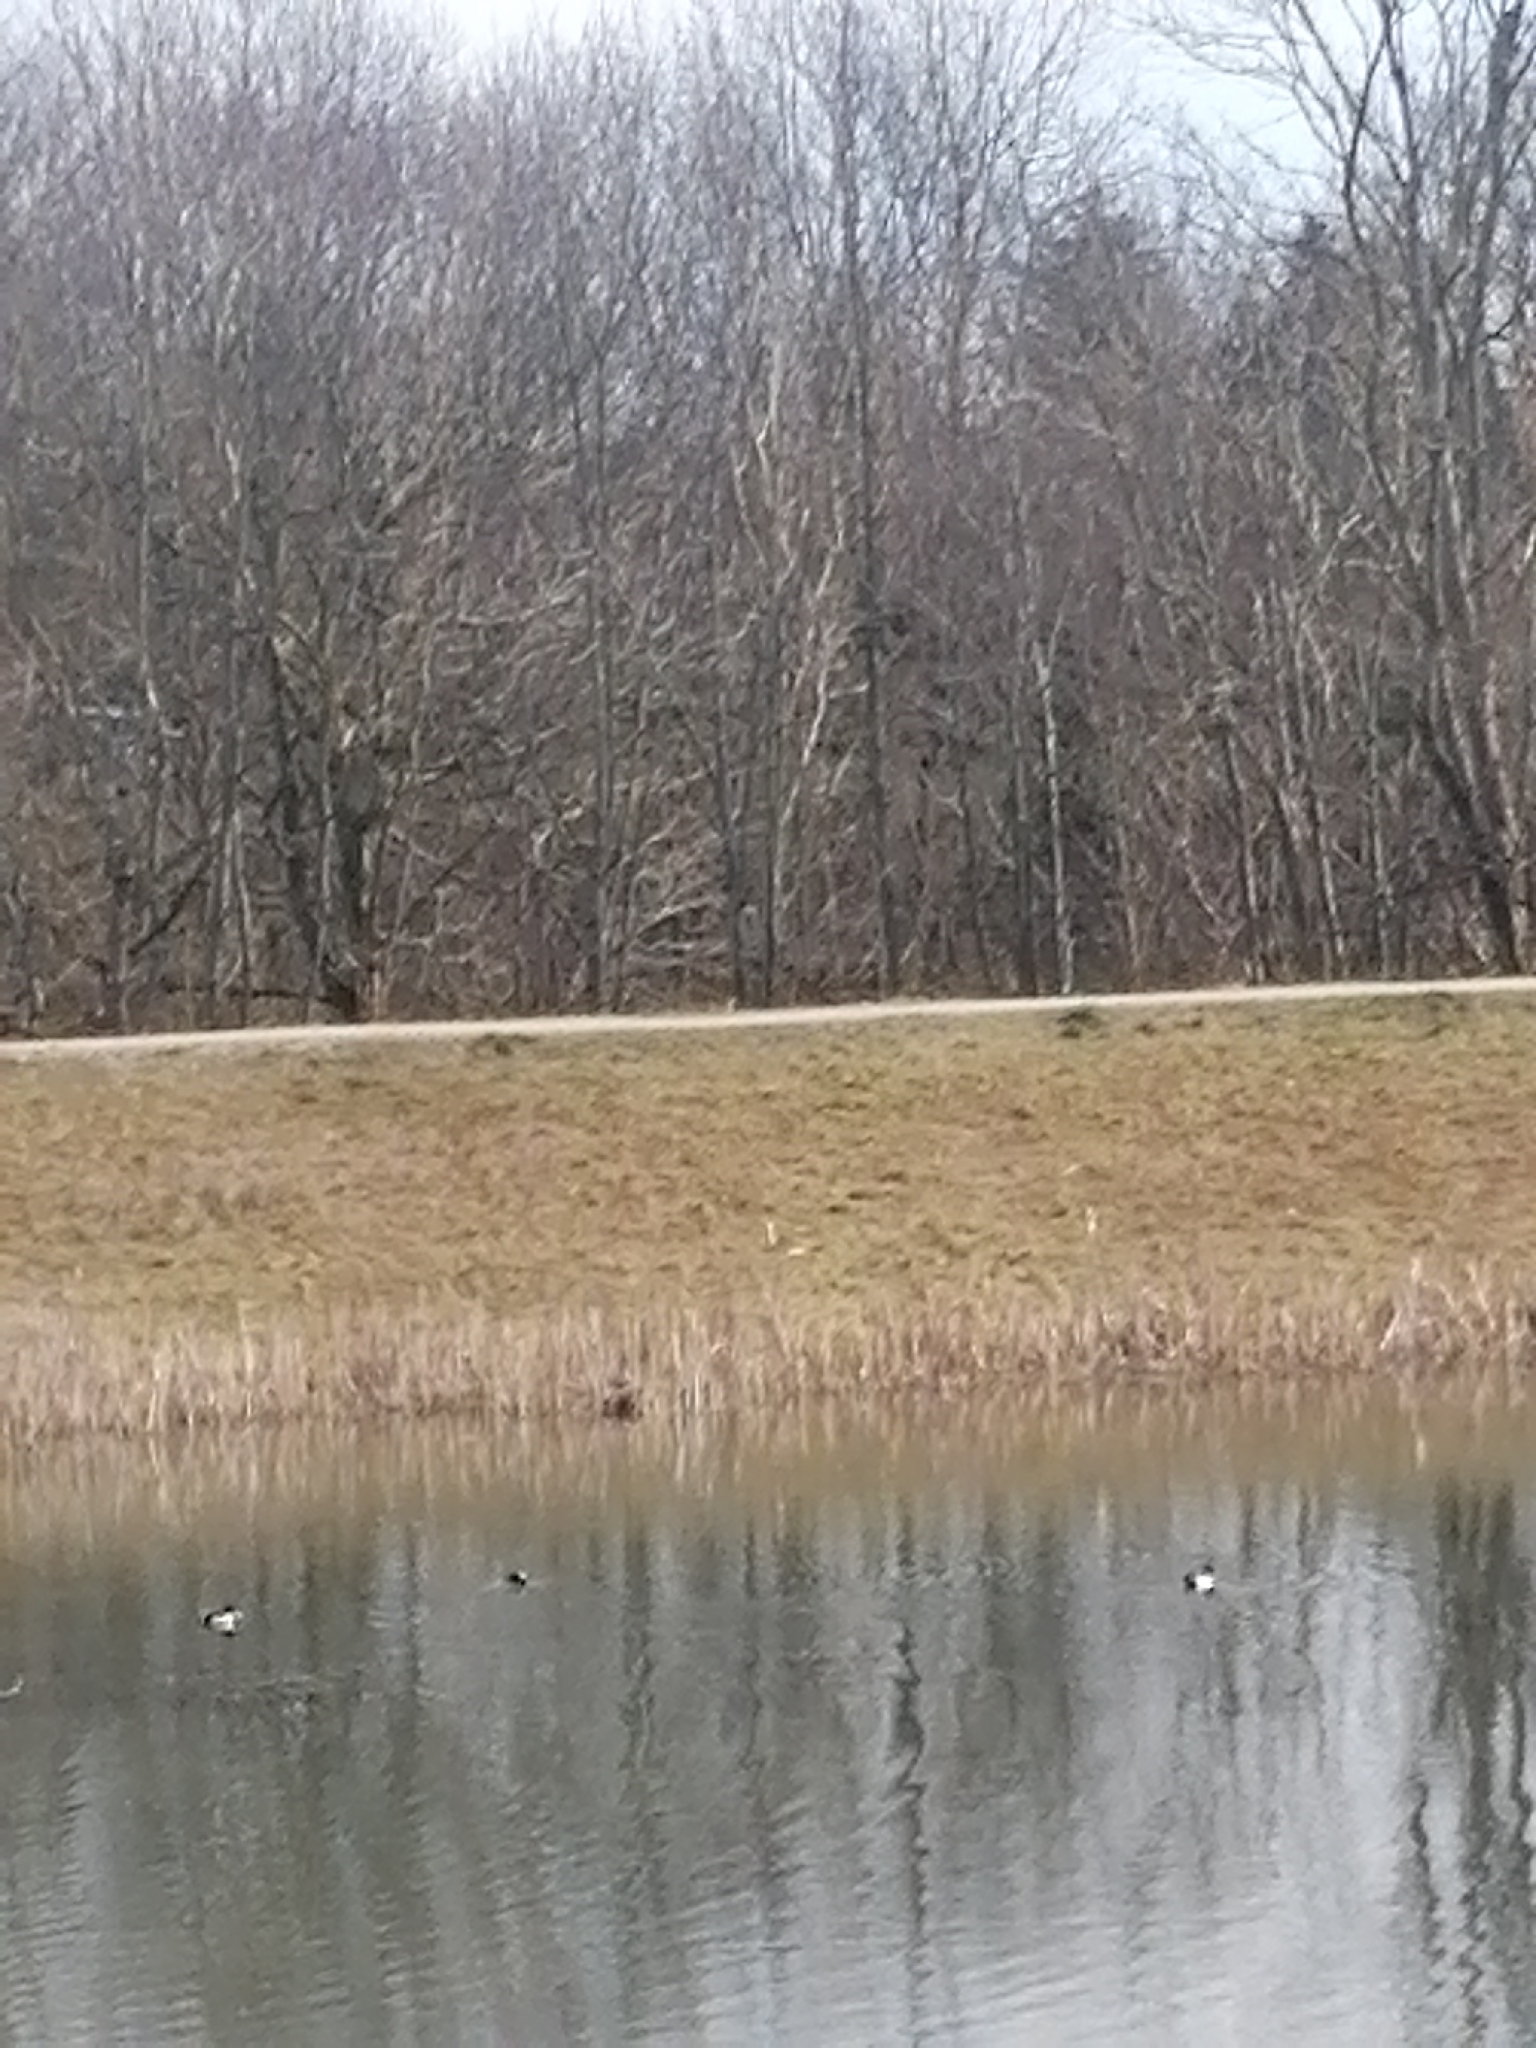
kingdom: Animalia
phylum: Chordata
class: Aves
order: Anseriformes
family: Anatidae
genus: Aythya
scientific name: Aythya fuligula
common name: Tufted duck
